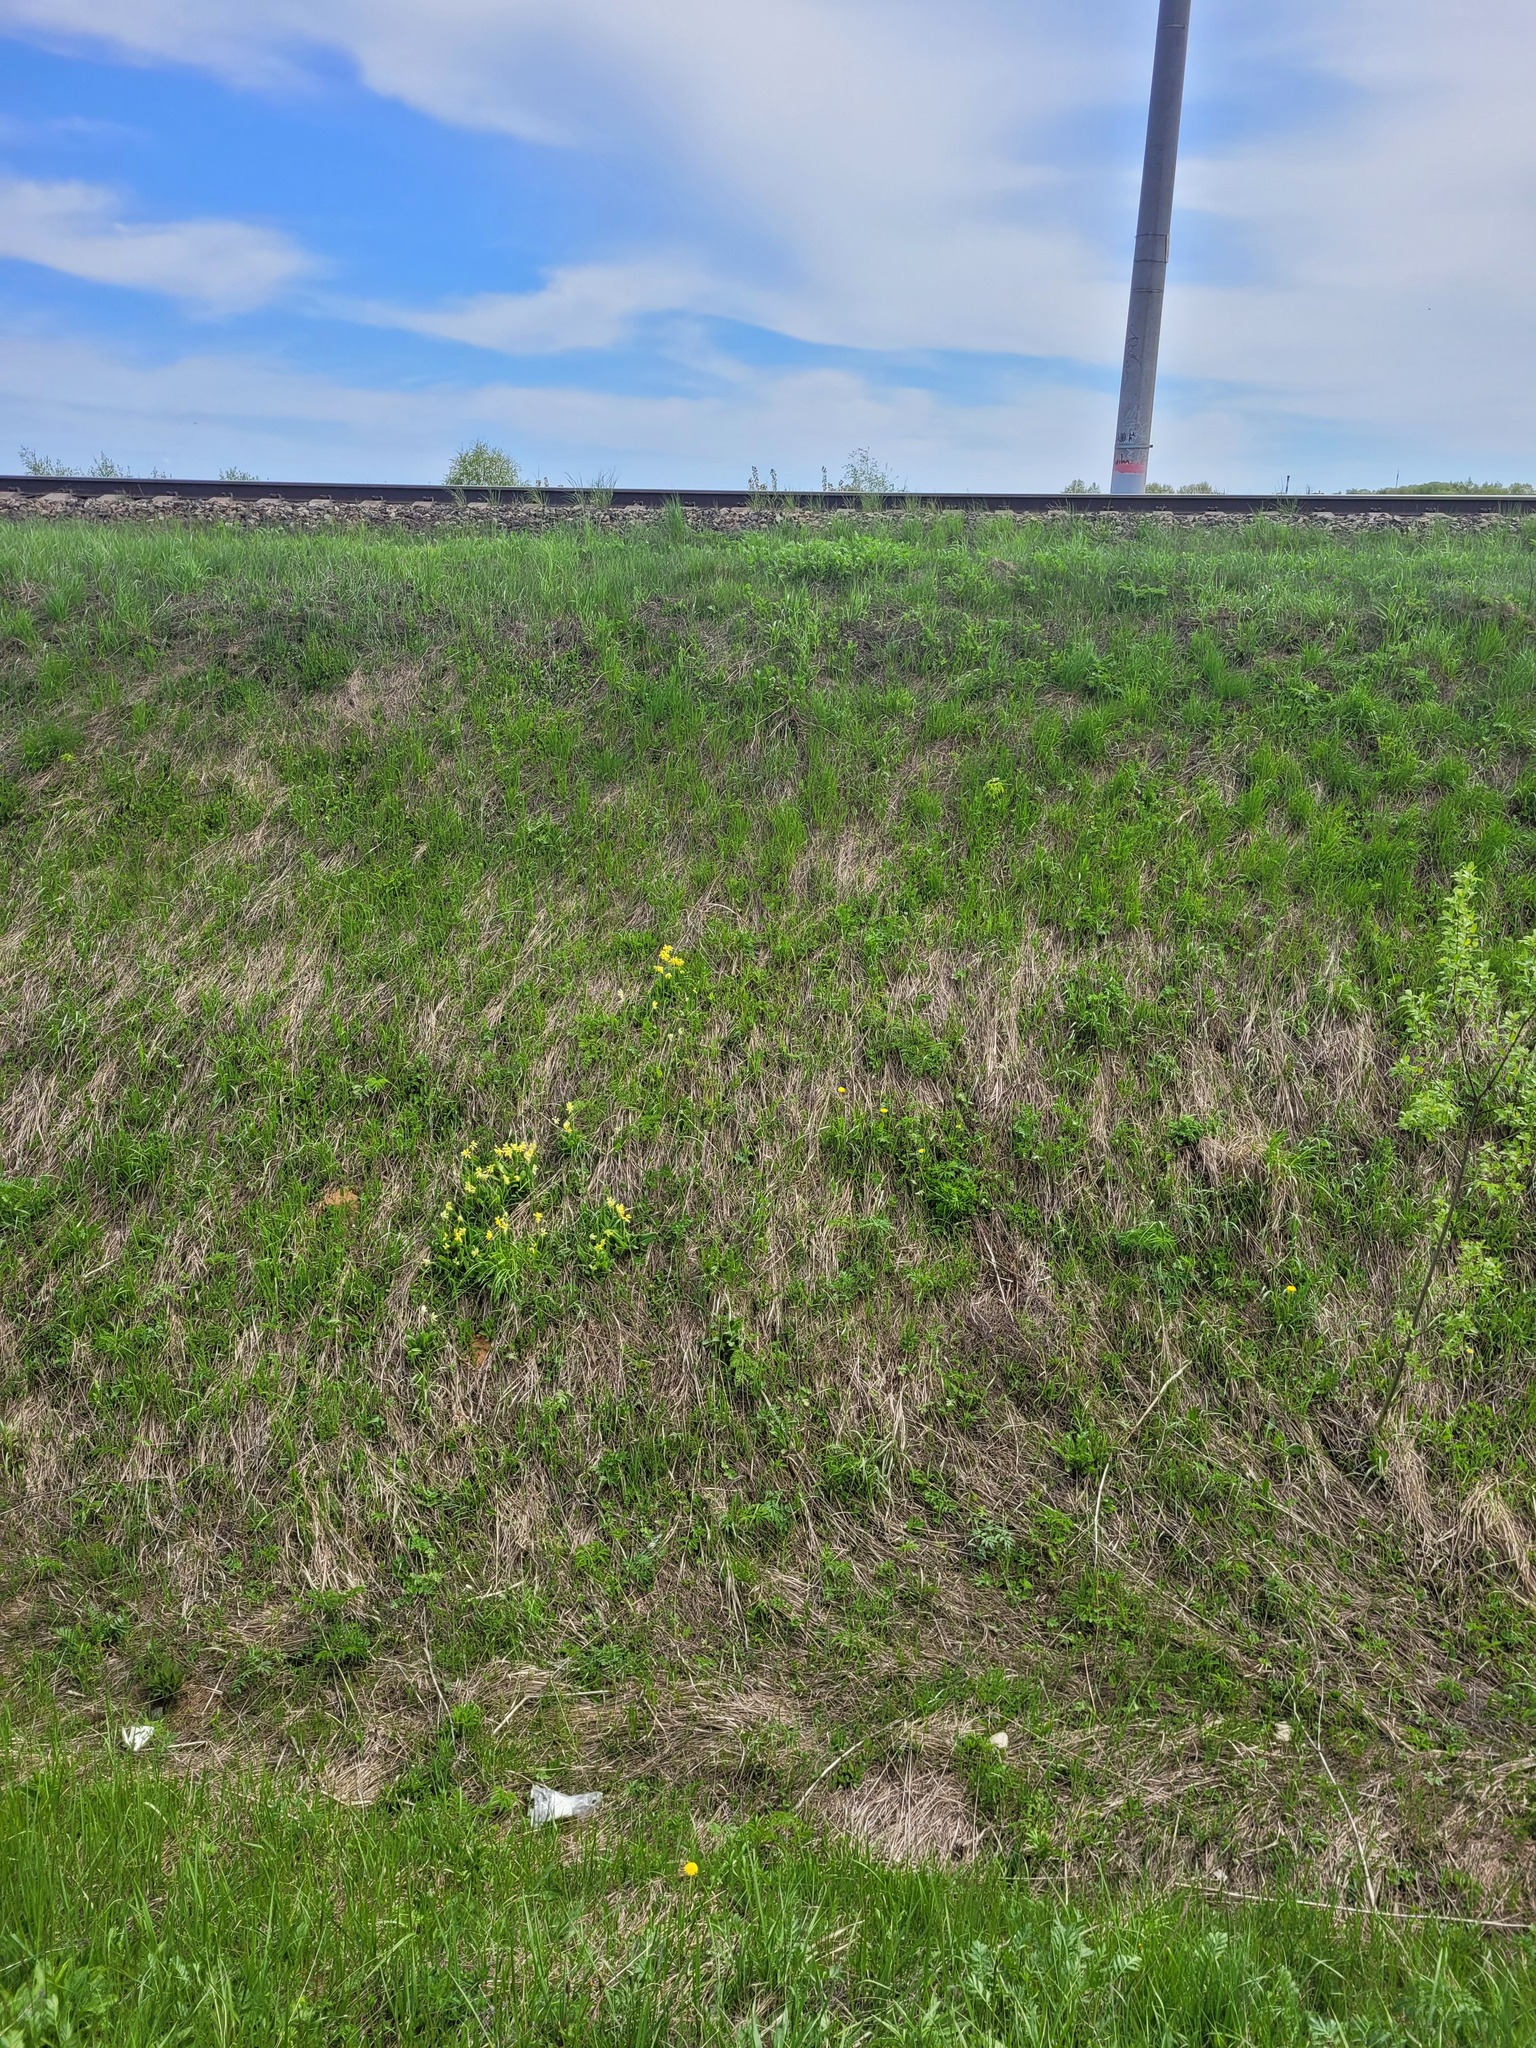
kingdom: Plantae
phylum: Tracheophyta
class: Magnoliopsida
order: Ericales
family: Primulaceae
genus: Primula
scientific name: Primula veris
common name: Cowslip
